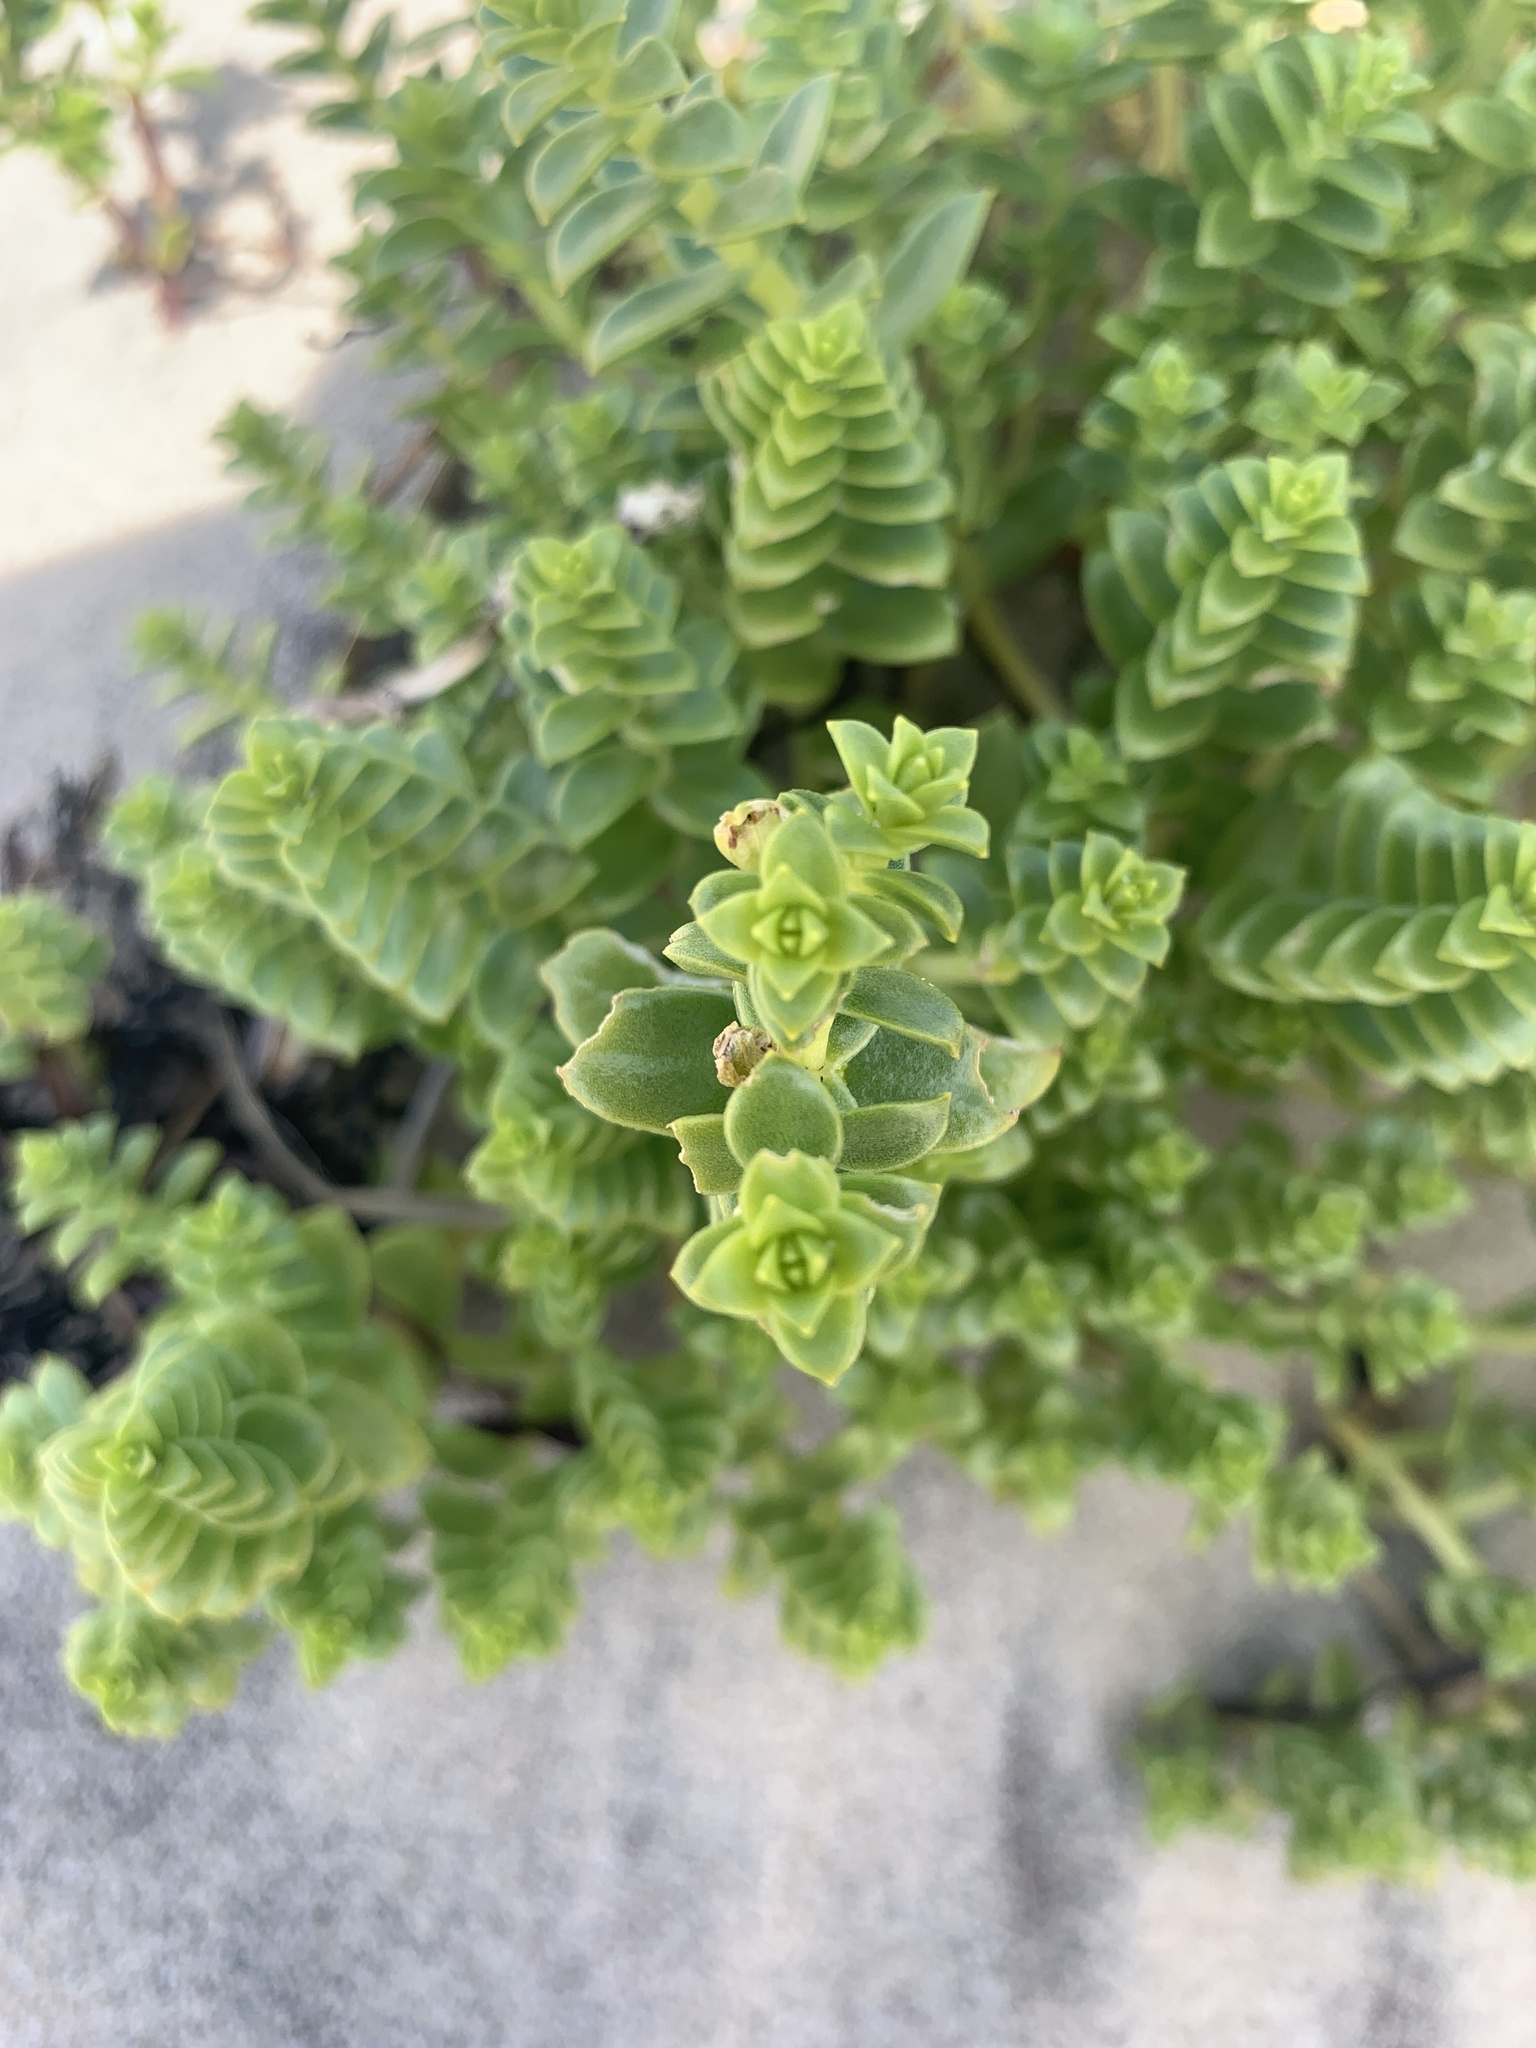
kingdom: Plantae
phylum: Tracheophyta
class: Magnoliopsida
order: Caryophyllales
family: Caryophyllaceae
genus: Honckenya
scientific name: Honckenya peploides
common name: Sea sandwort
